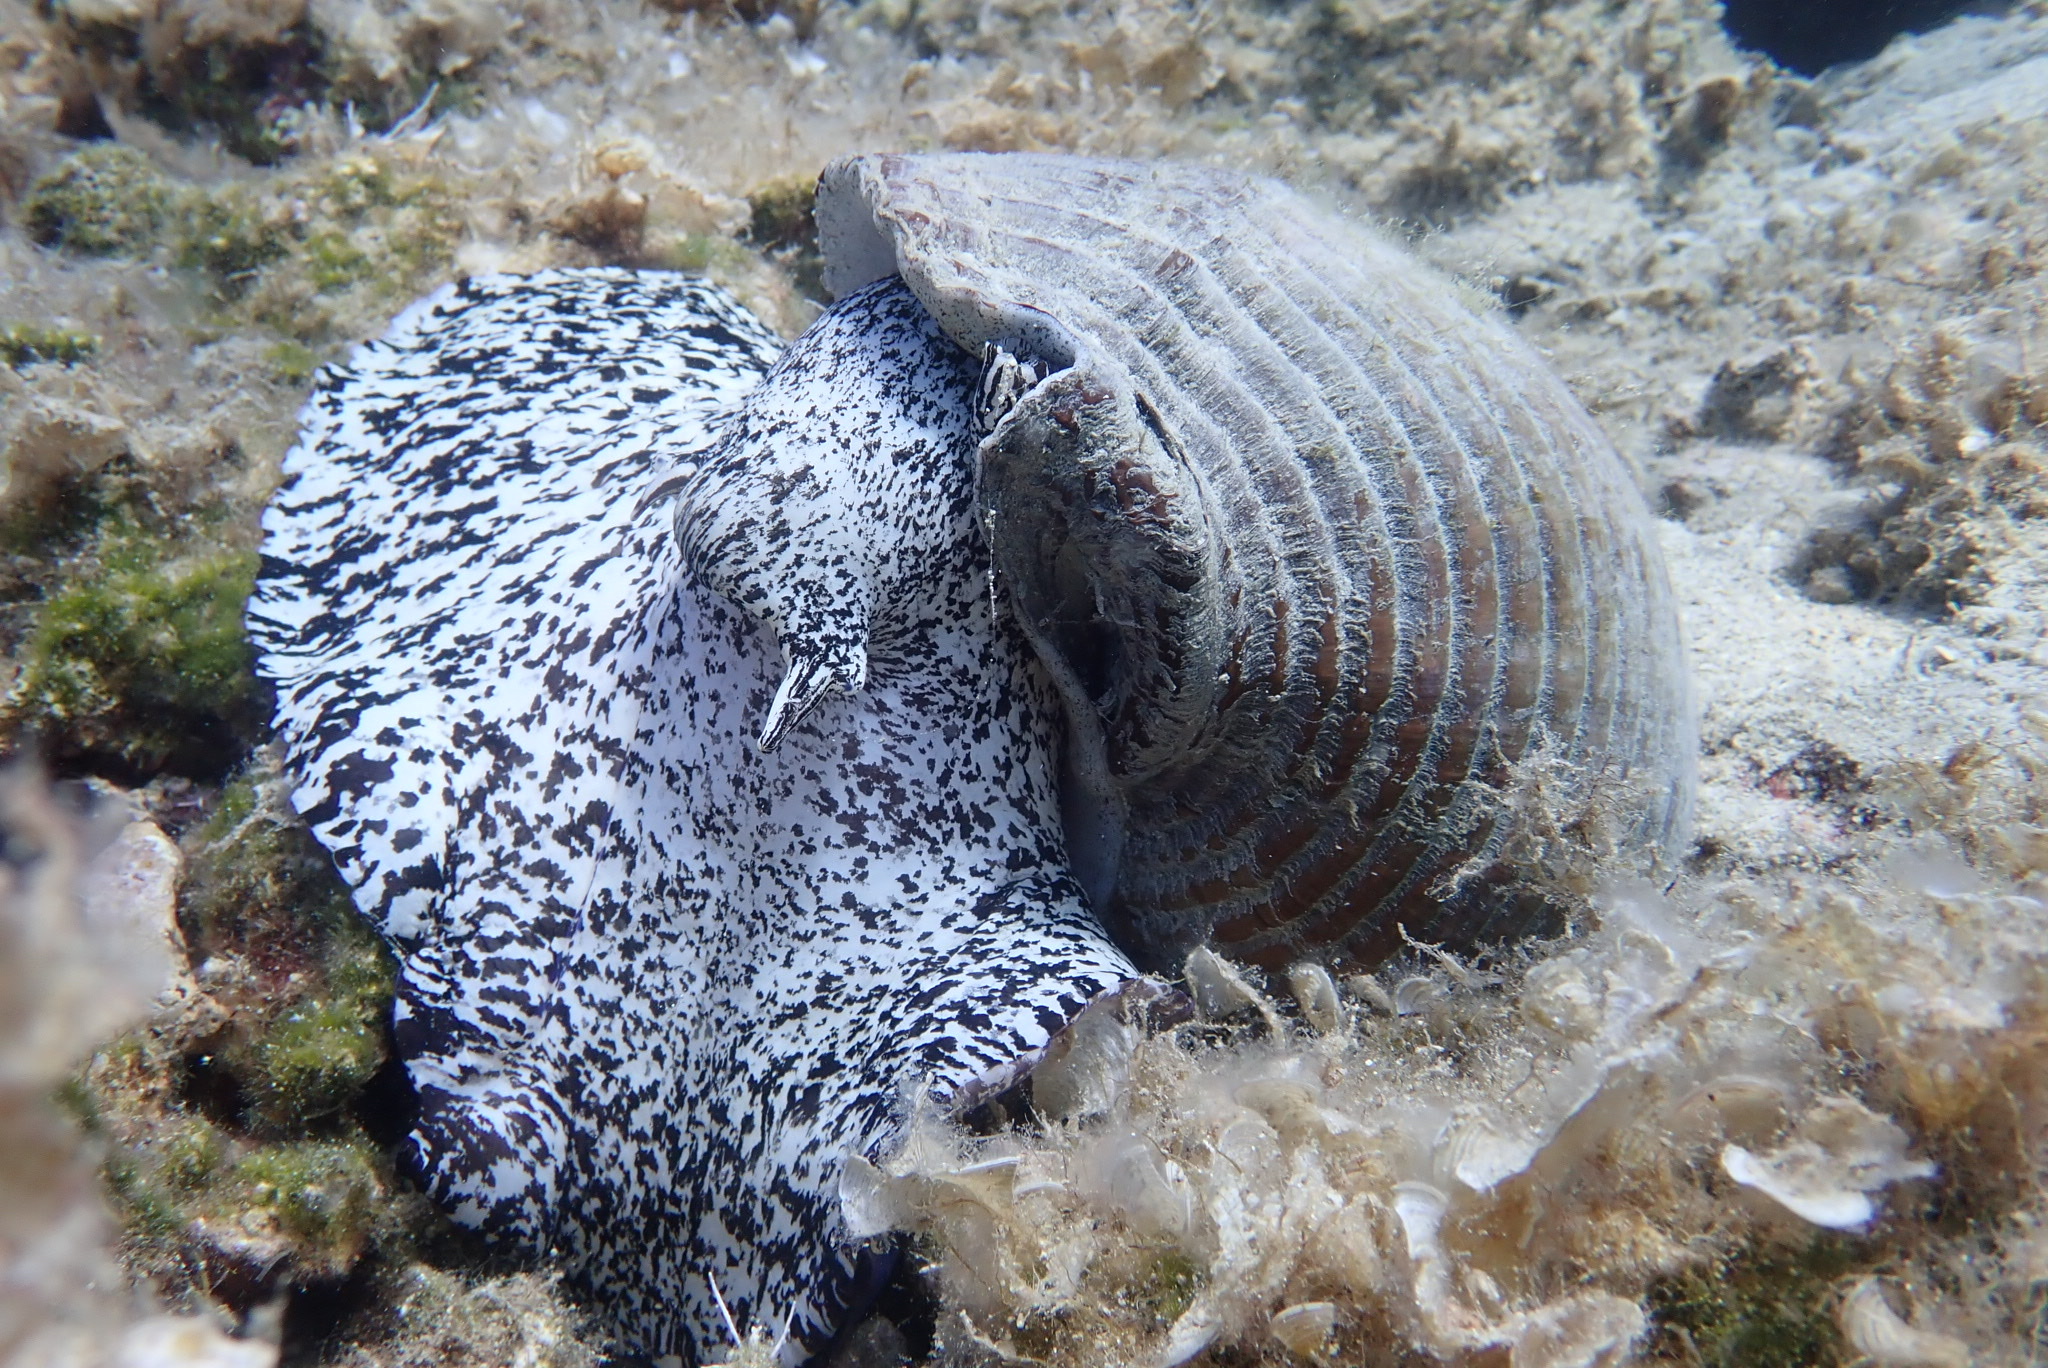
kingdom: Animalia
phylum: Mollusca
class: Gastropoda
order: Littorinimorpha
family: Tonnidae
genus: Tonna
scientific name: Tonna galea
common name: Giant tun
